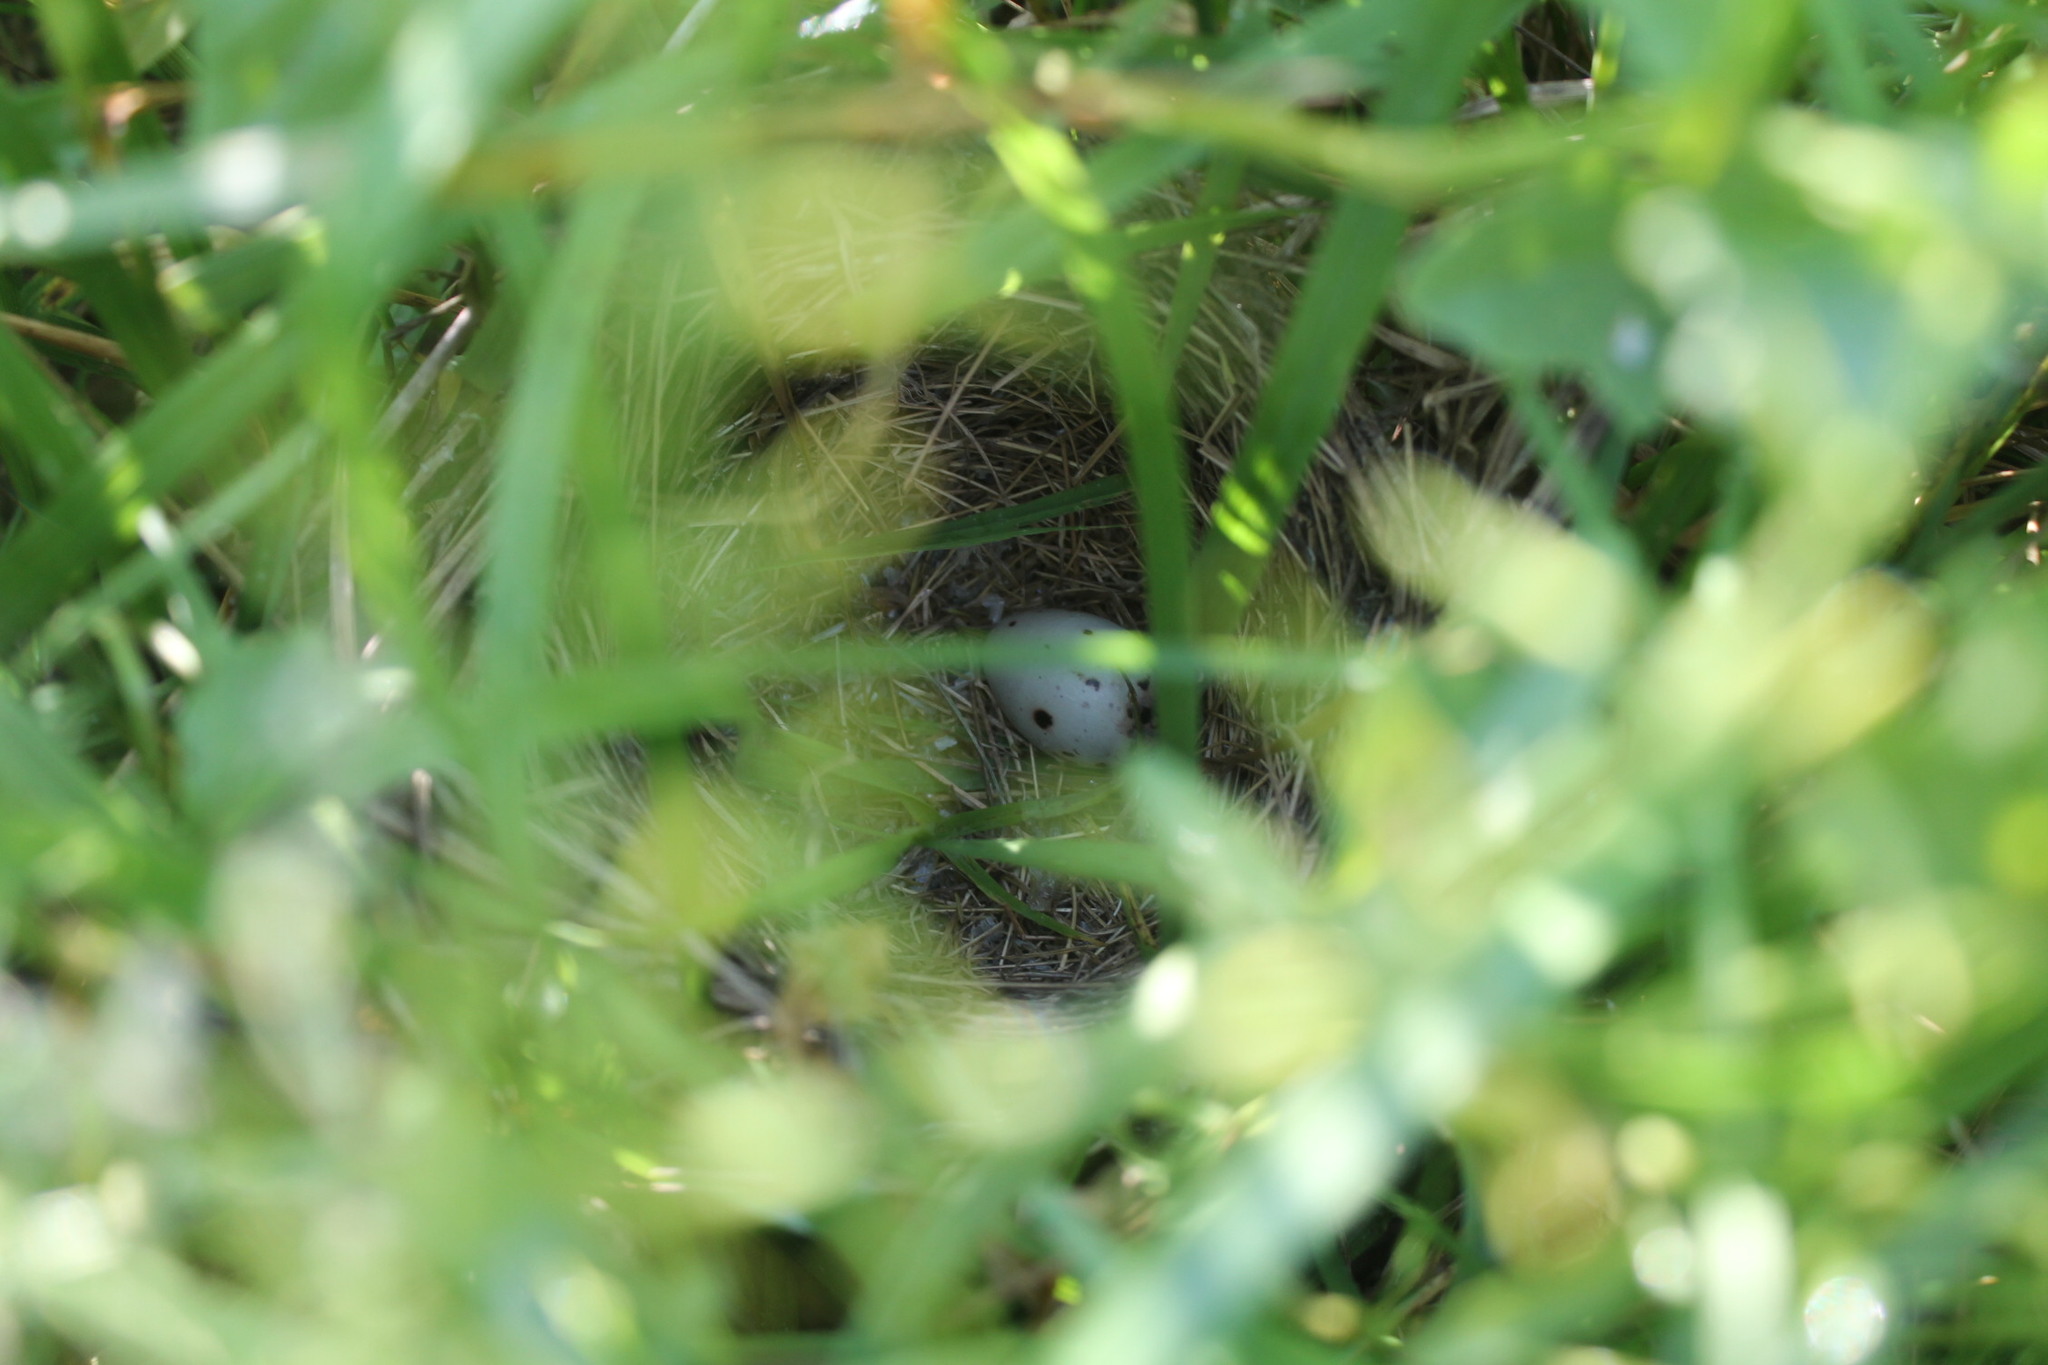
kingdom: Animalia
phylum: Chordata
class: Aves
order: Passeriformes
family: Icteridae
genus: Agelaius
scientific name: Agelaius phoeniceus
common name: Red-winged blackbird
